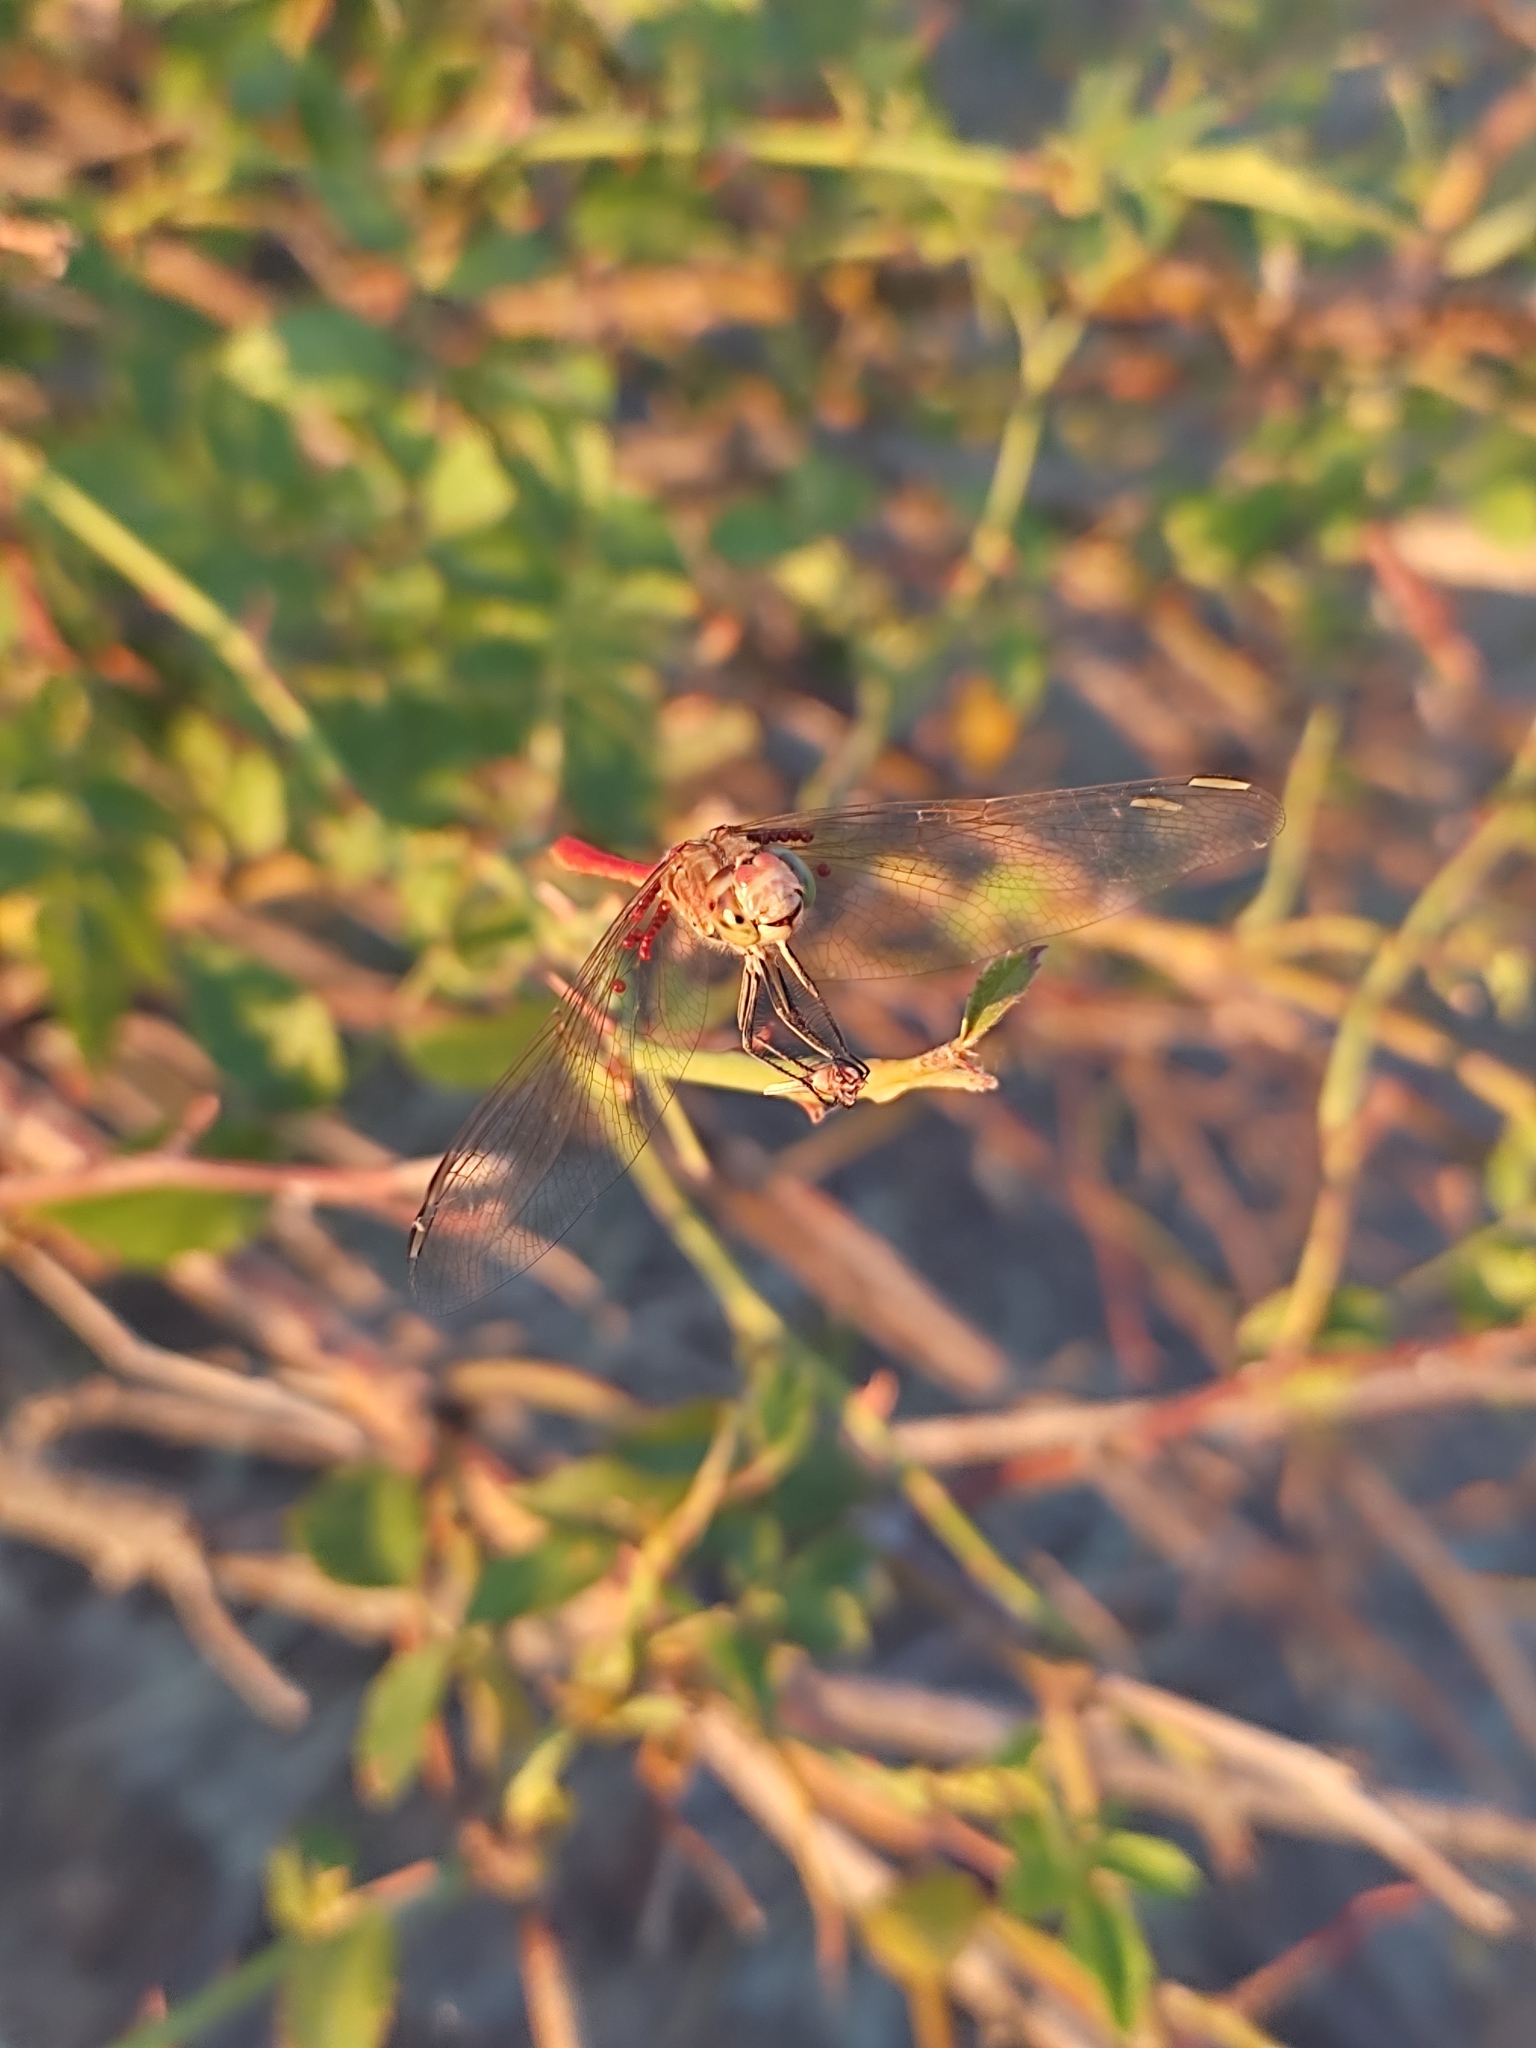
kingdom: Animalia
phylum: Arthropoda
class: Insecta
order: Odonata
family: Libellulidae
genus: Sympetrum
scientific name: Sympetrum meridionale
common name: Southern darter
